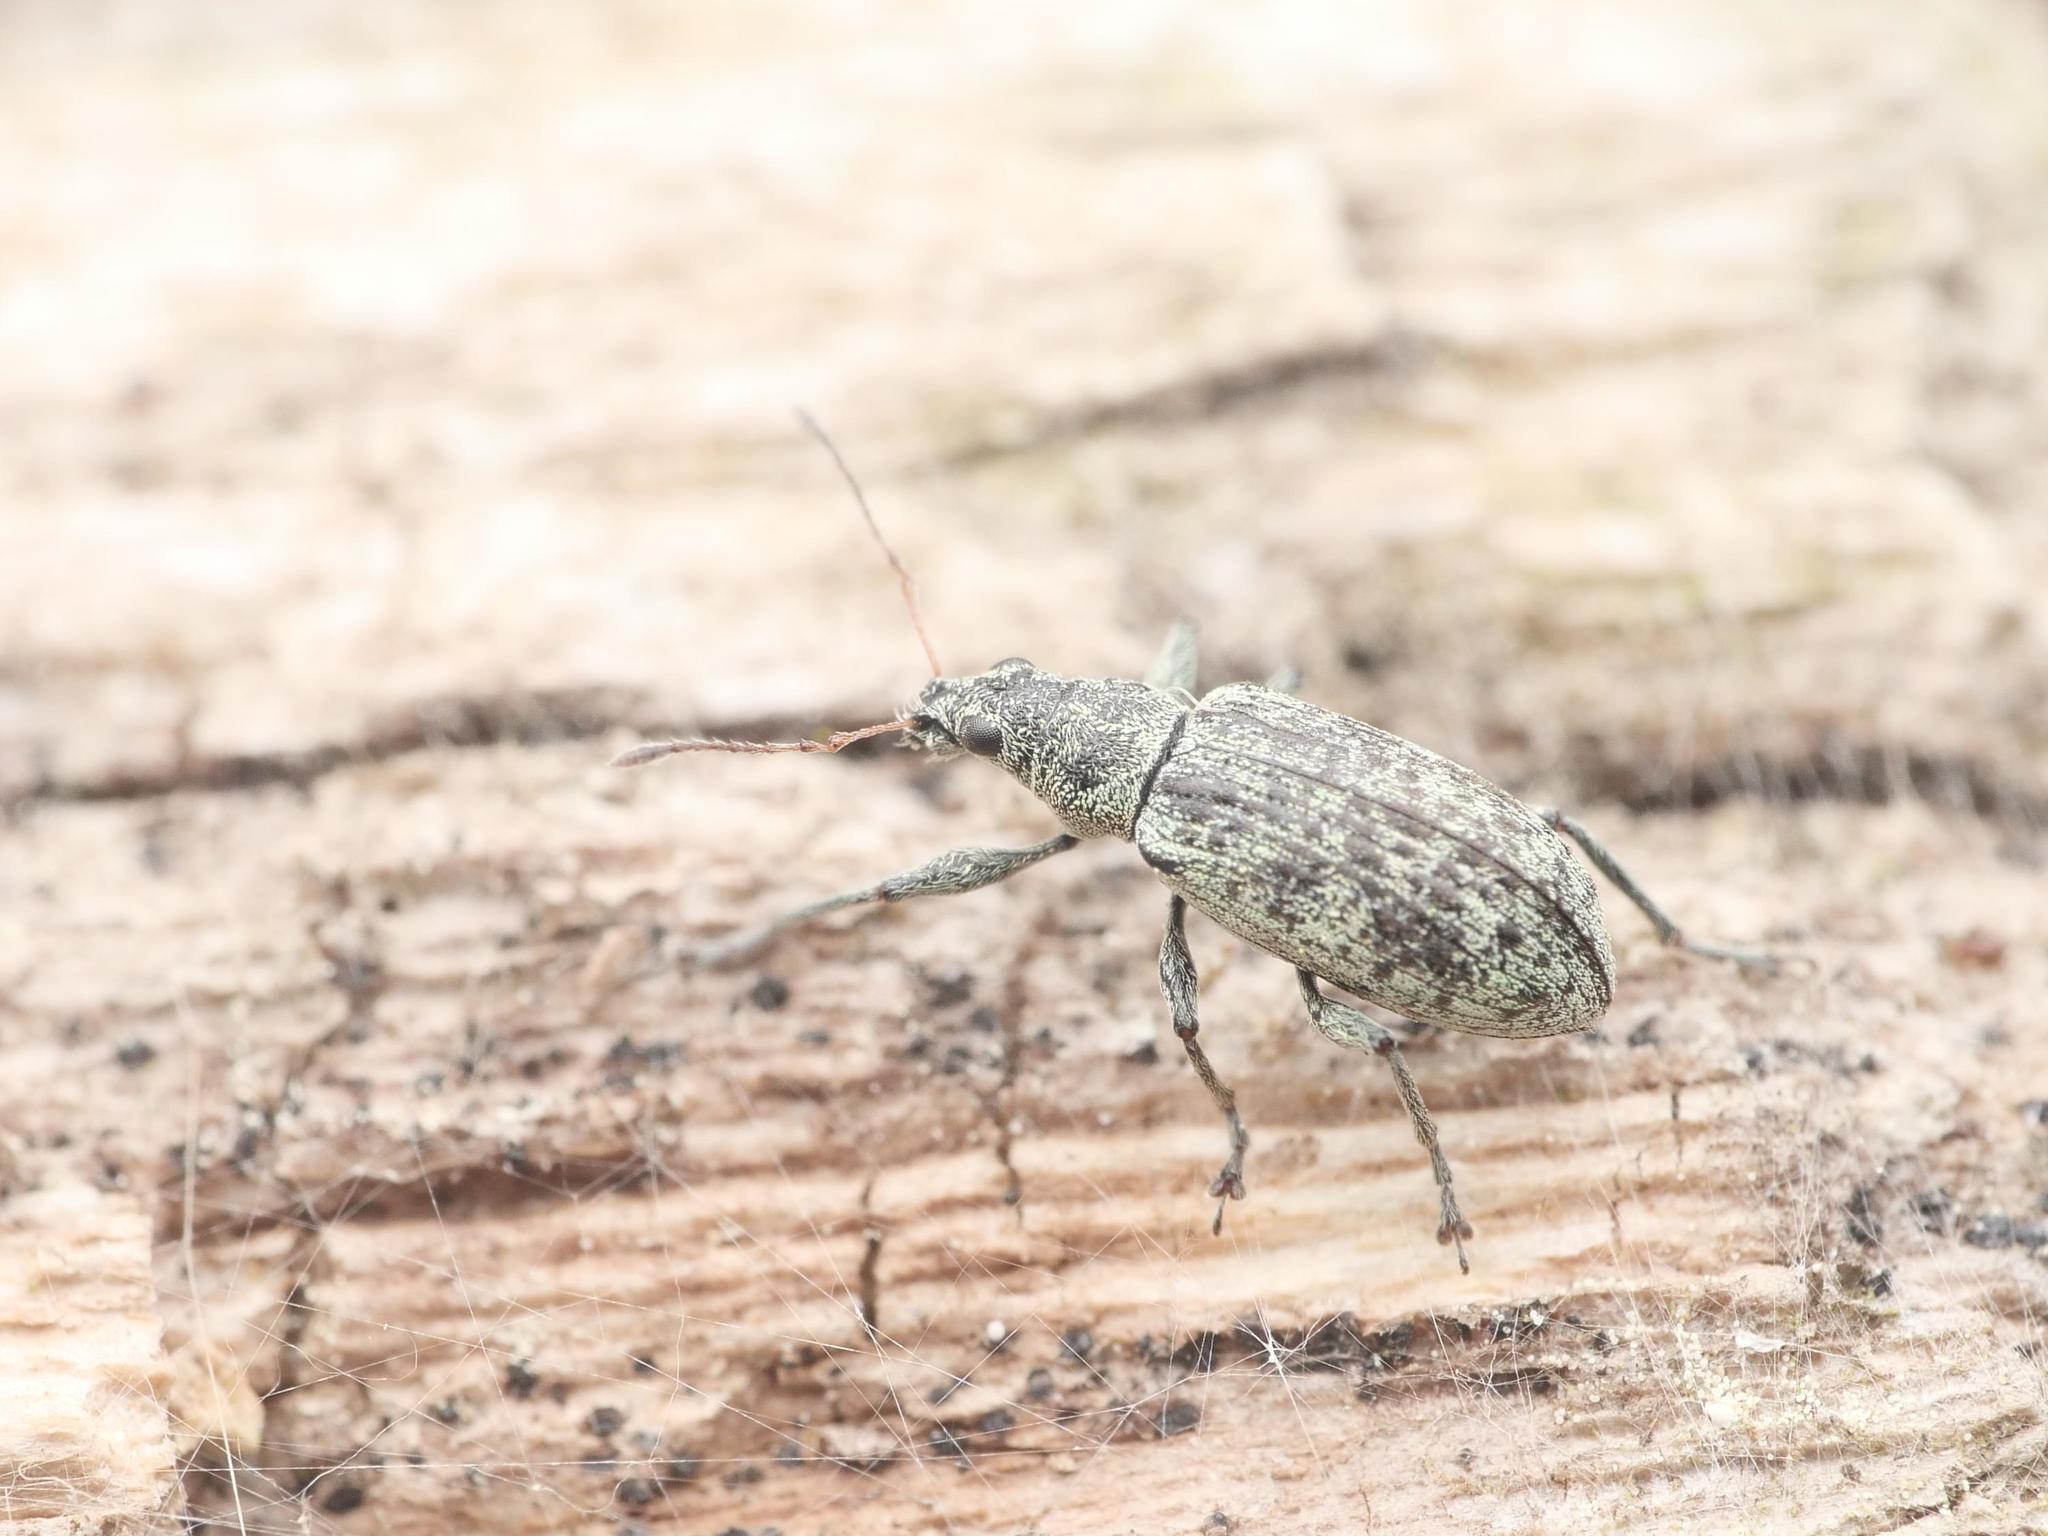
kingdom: Animalia
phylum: Arthropoda
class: Insecta
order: Coleoptera
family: Curculionidae
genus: Polydrusus
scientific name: Polydrusus cervinus
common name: Weevil
